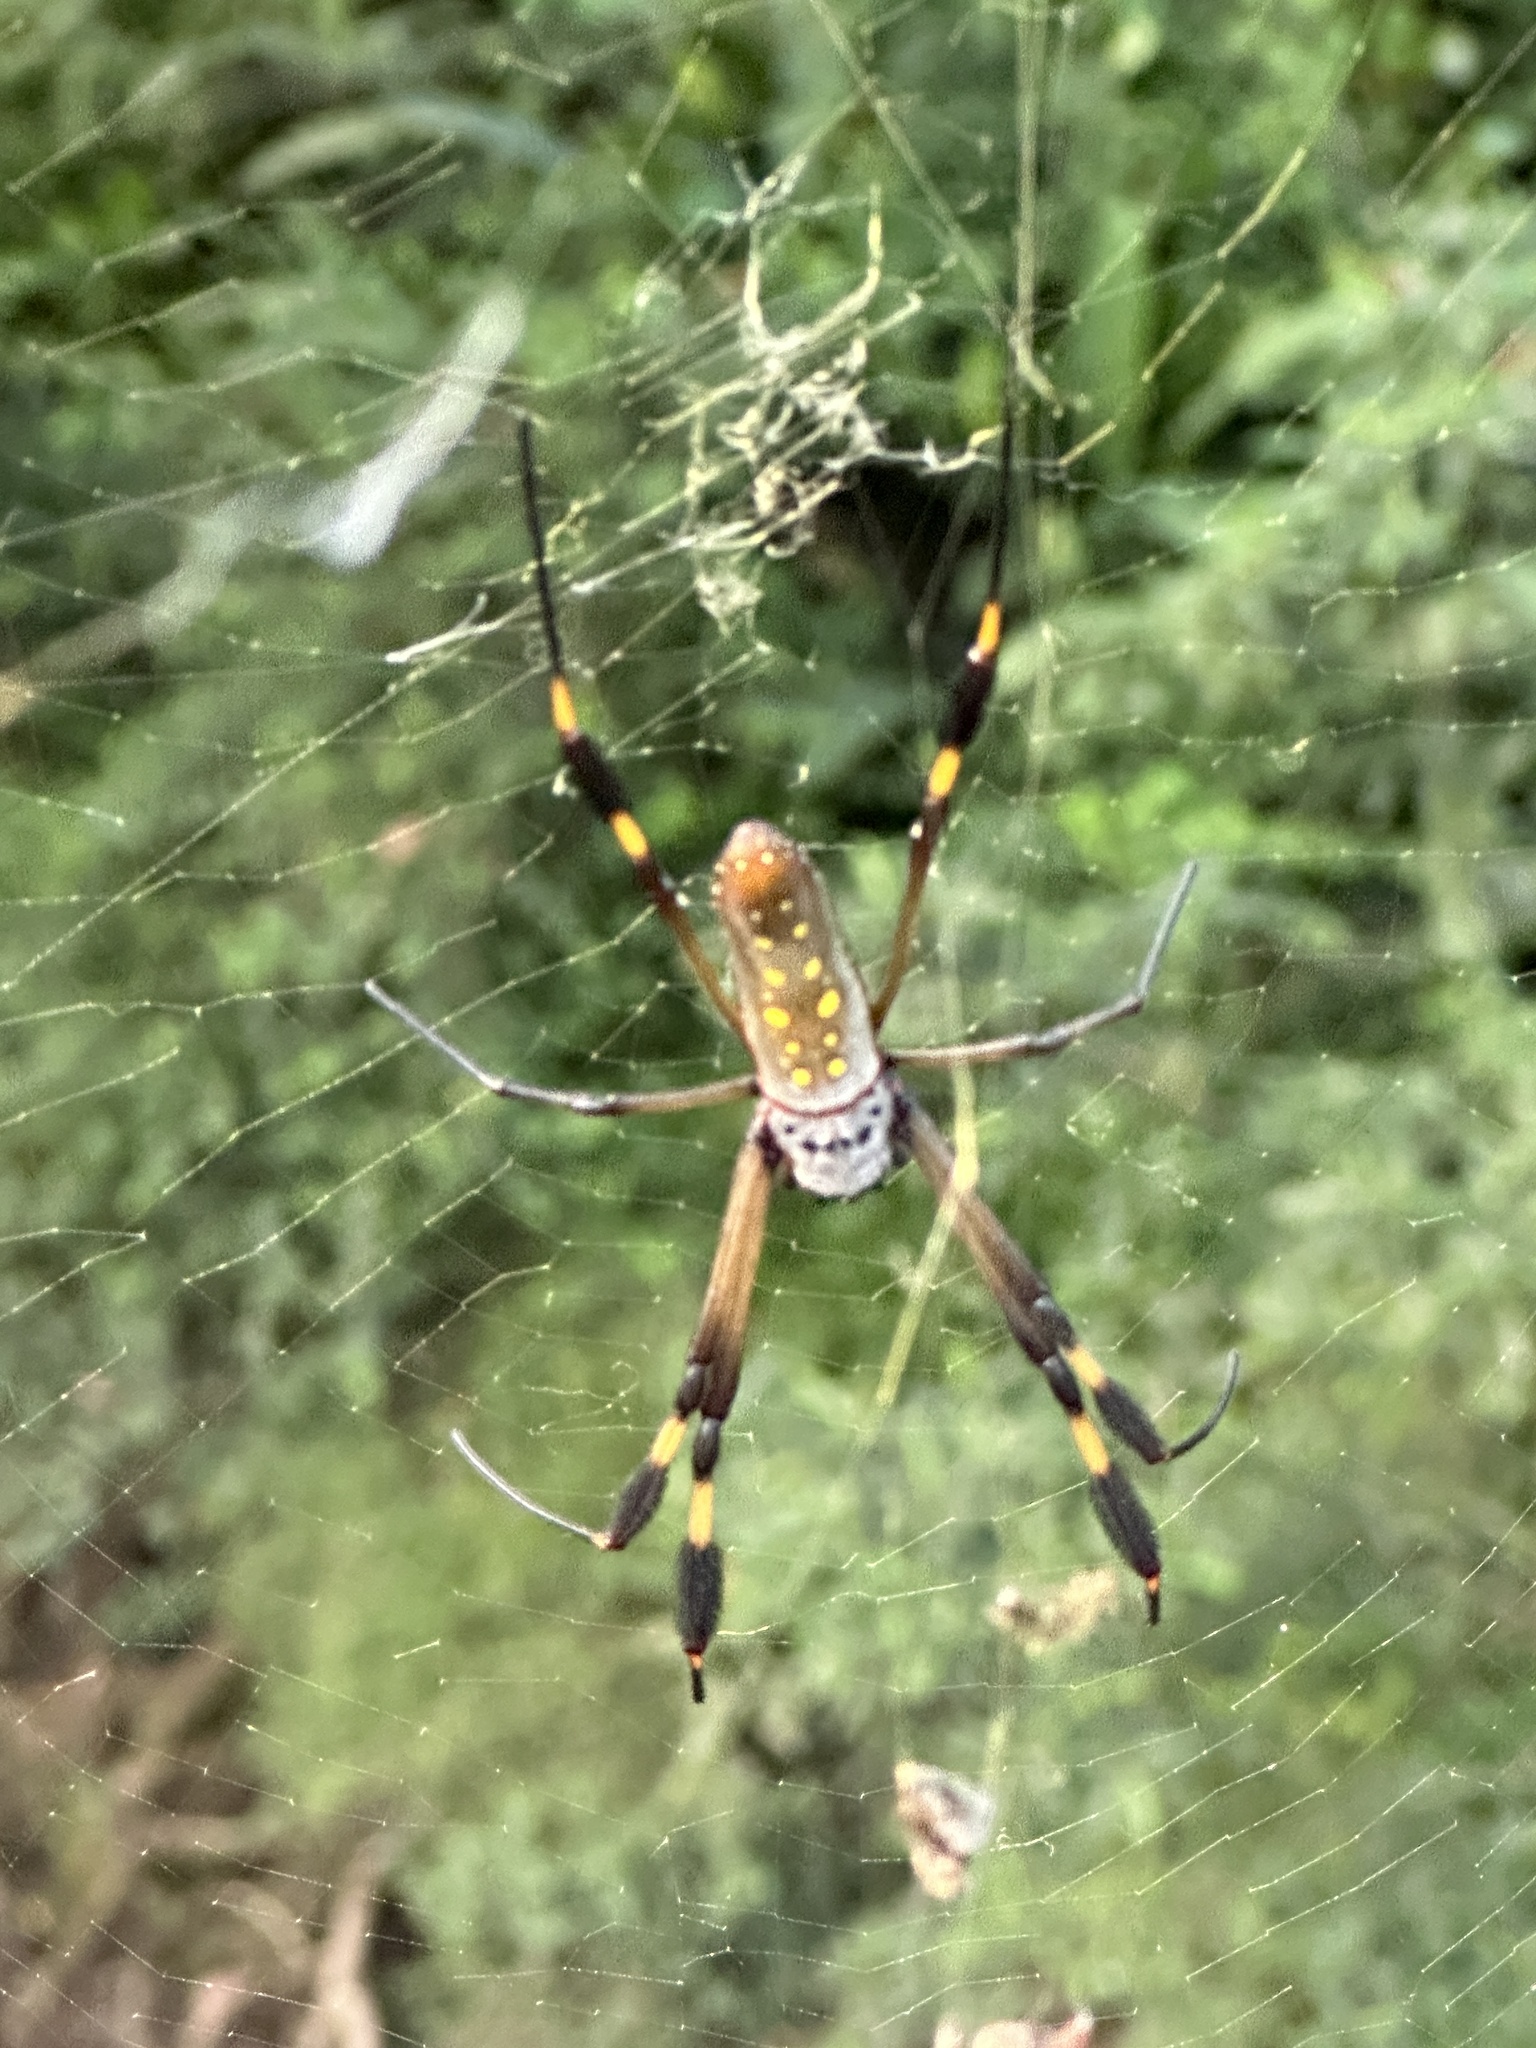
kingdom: Animalia
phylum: Arthropoda
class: Arachnida
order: Araneae
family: Araneidae
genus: Trichonephila
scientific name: Trichonephila clavipes
